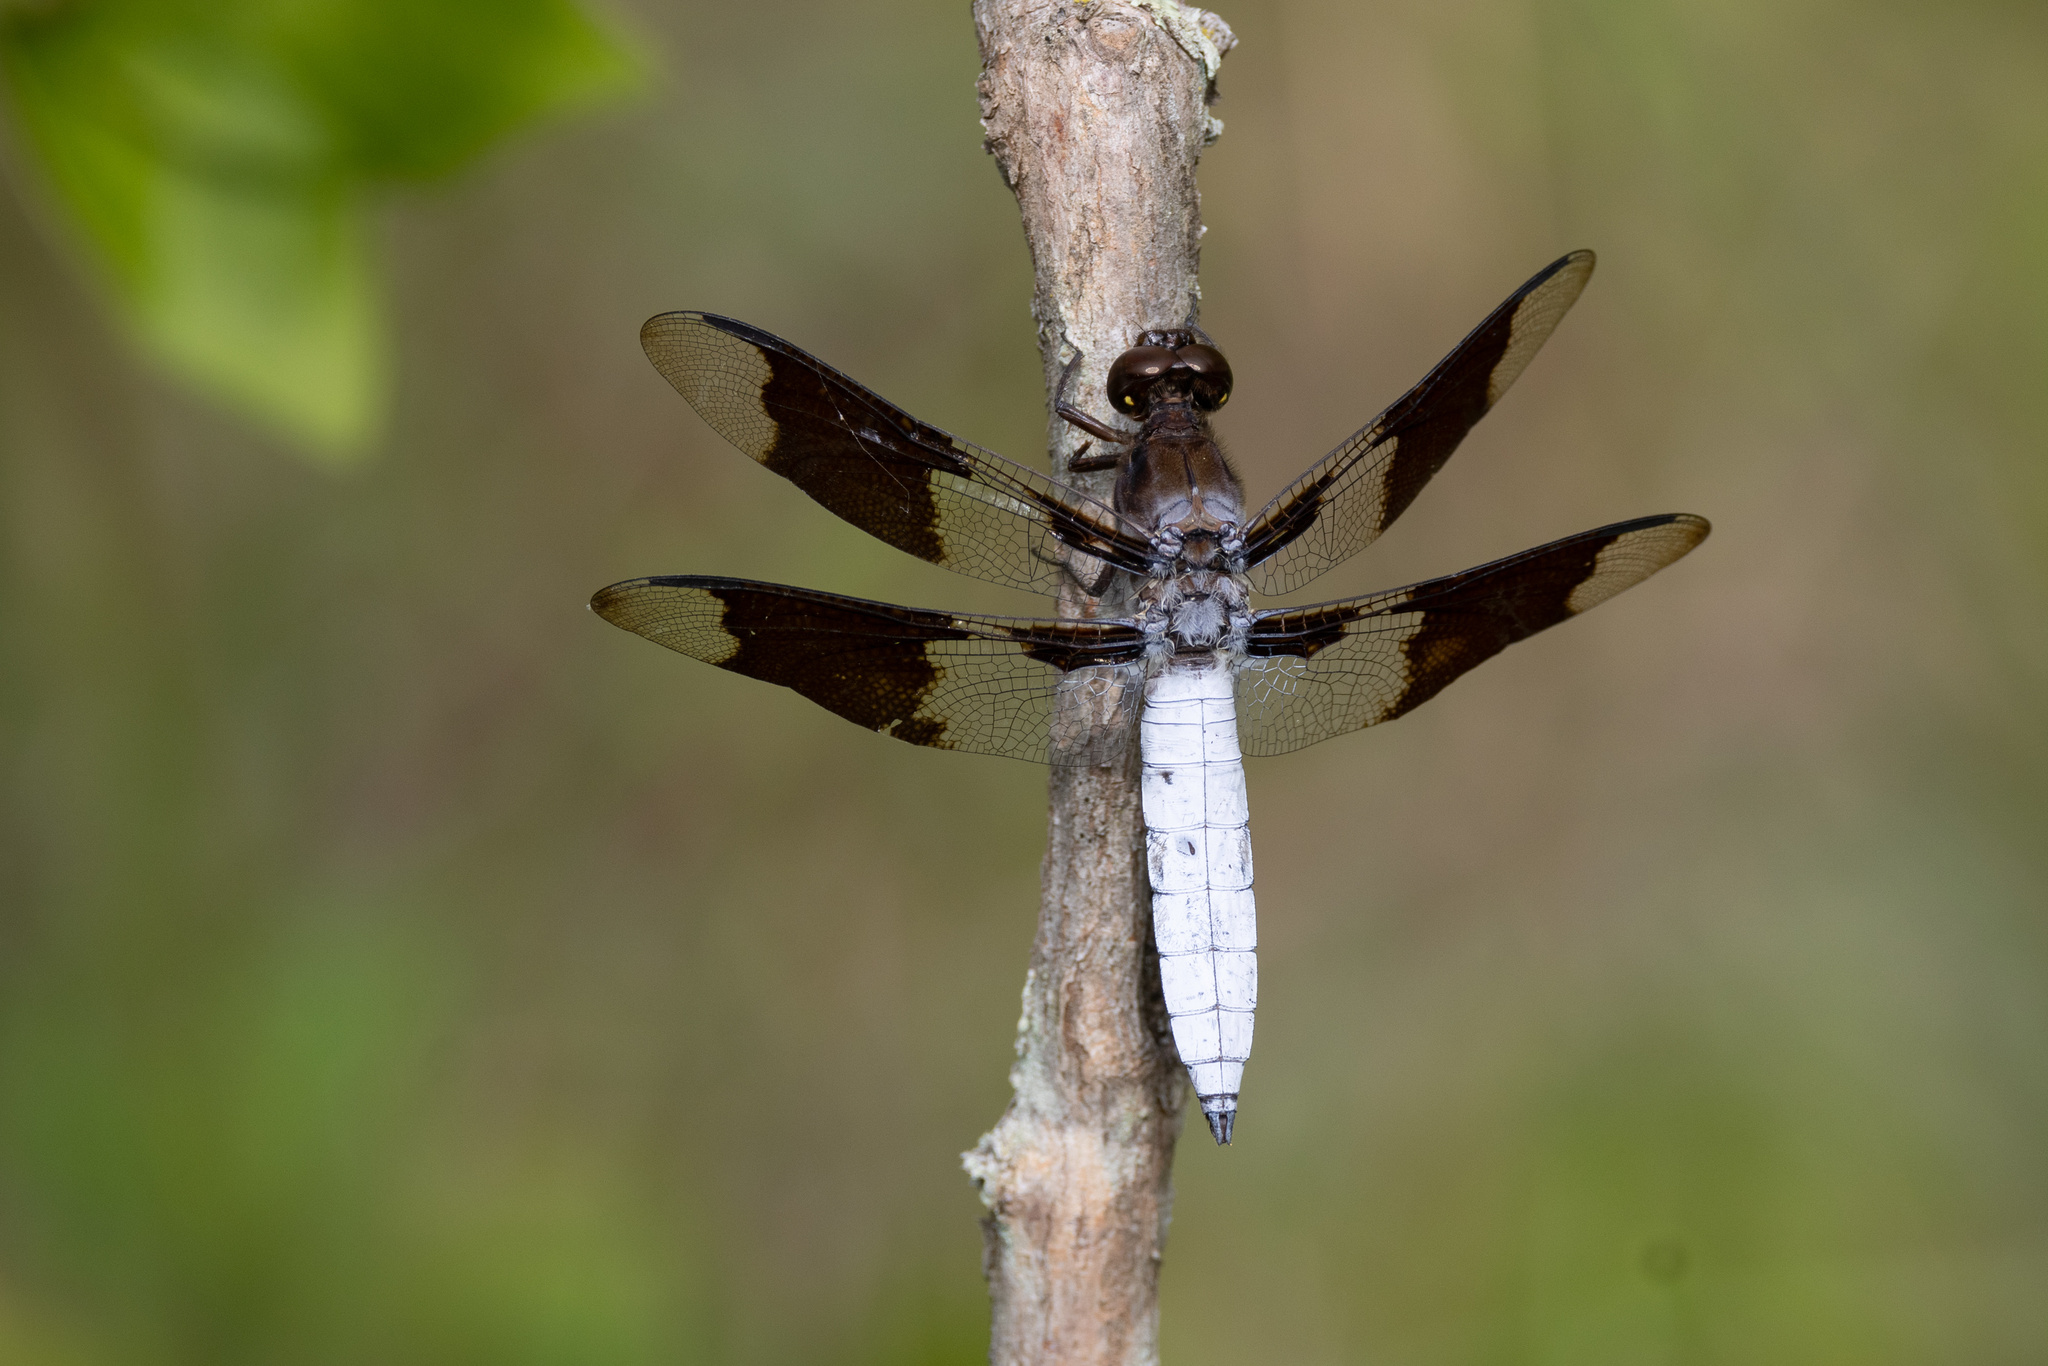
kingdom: Animalia
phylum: Arthropoda
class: Insecta
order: Odonata
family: Libellulidae
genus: Plathemis
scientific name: Plathemis lydia
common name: Common whitetail
